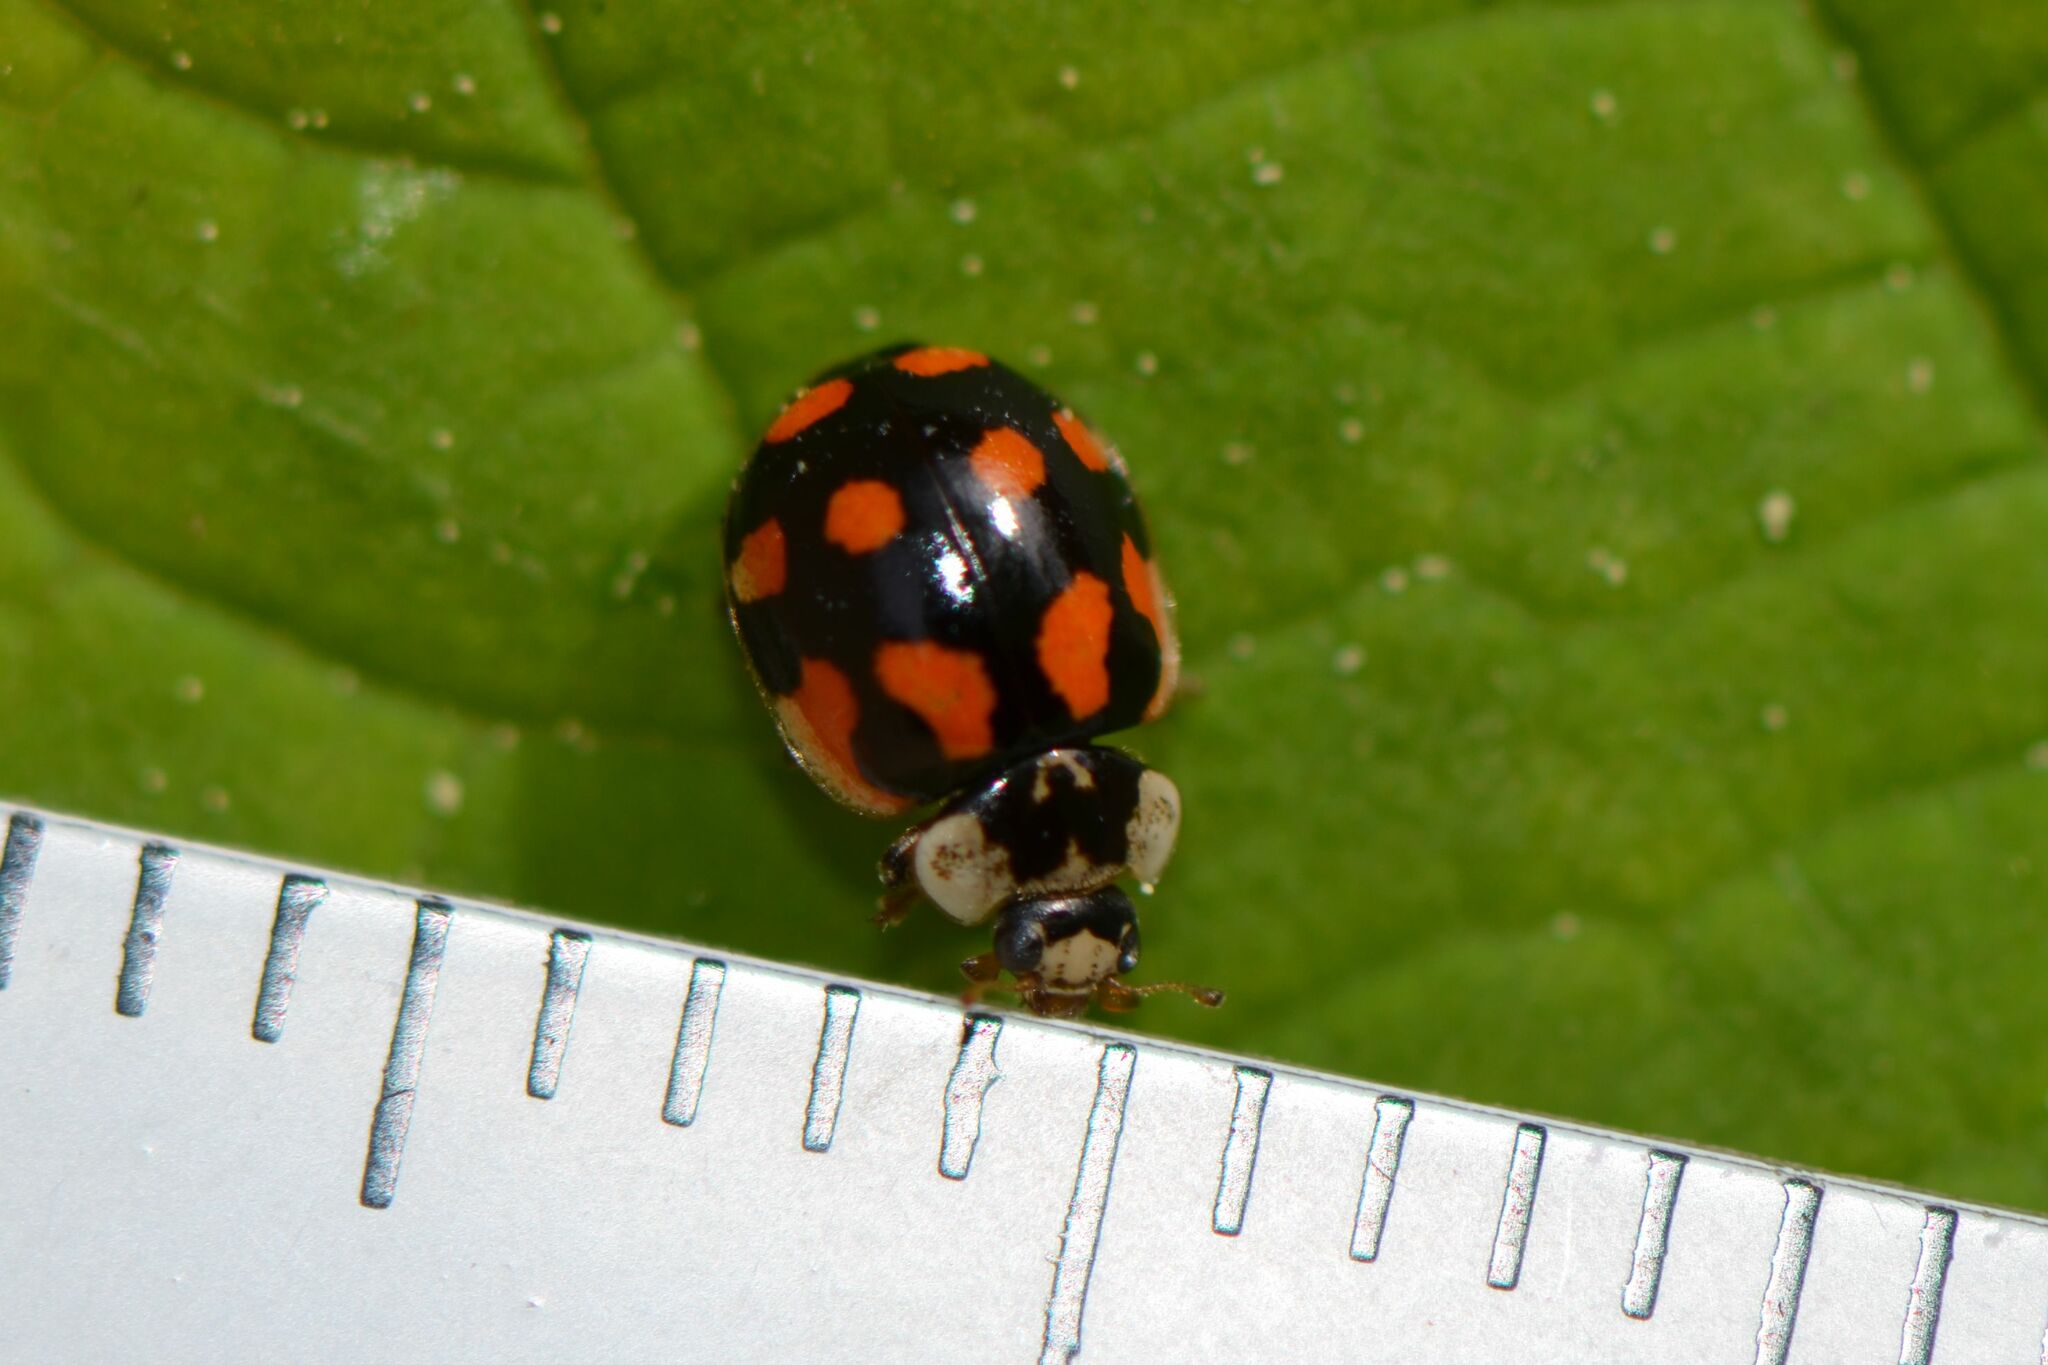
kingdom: Animalia
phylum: Arthropoda
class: Insecta
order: Coleoptera
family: Coccinellidae
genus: Adalia
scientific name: Adalia decempunctata
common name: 10-spot ladybird
